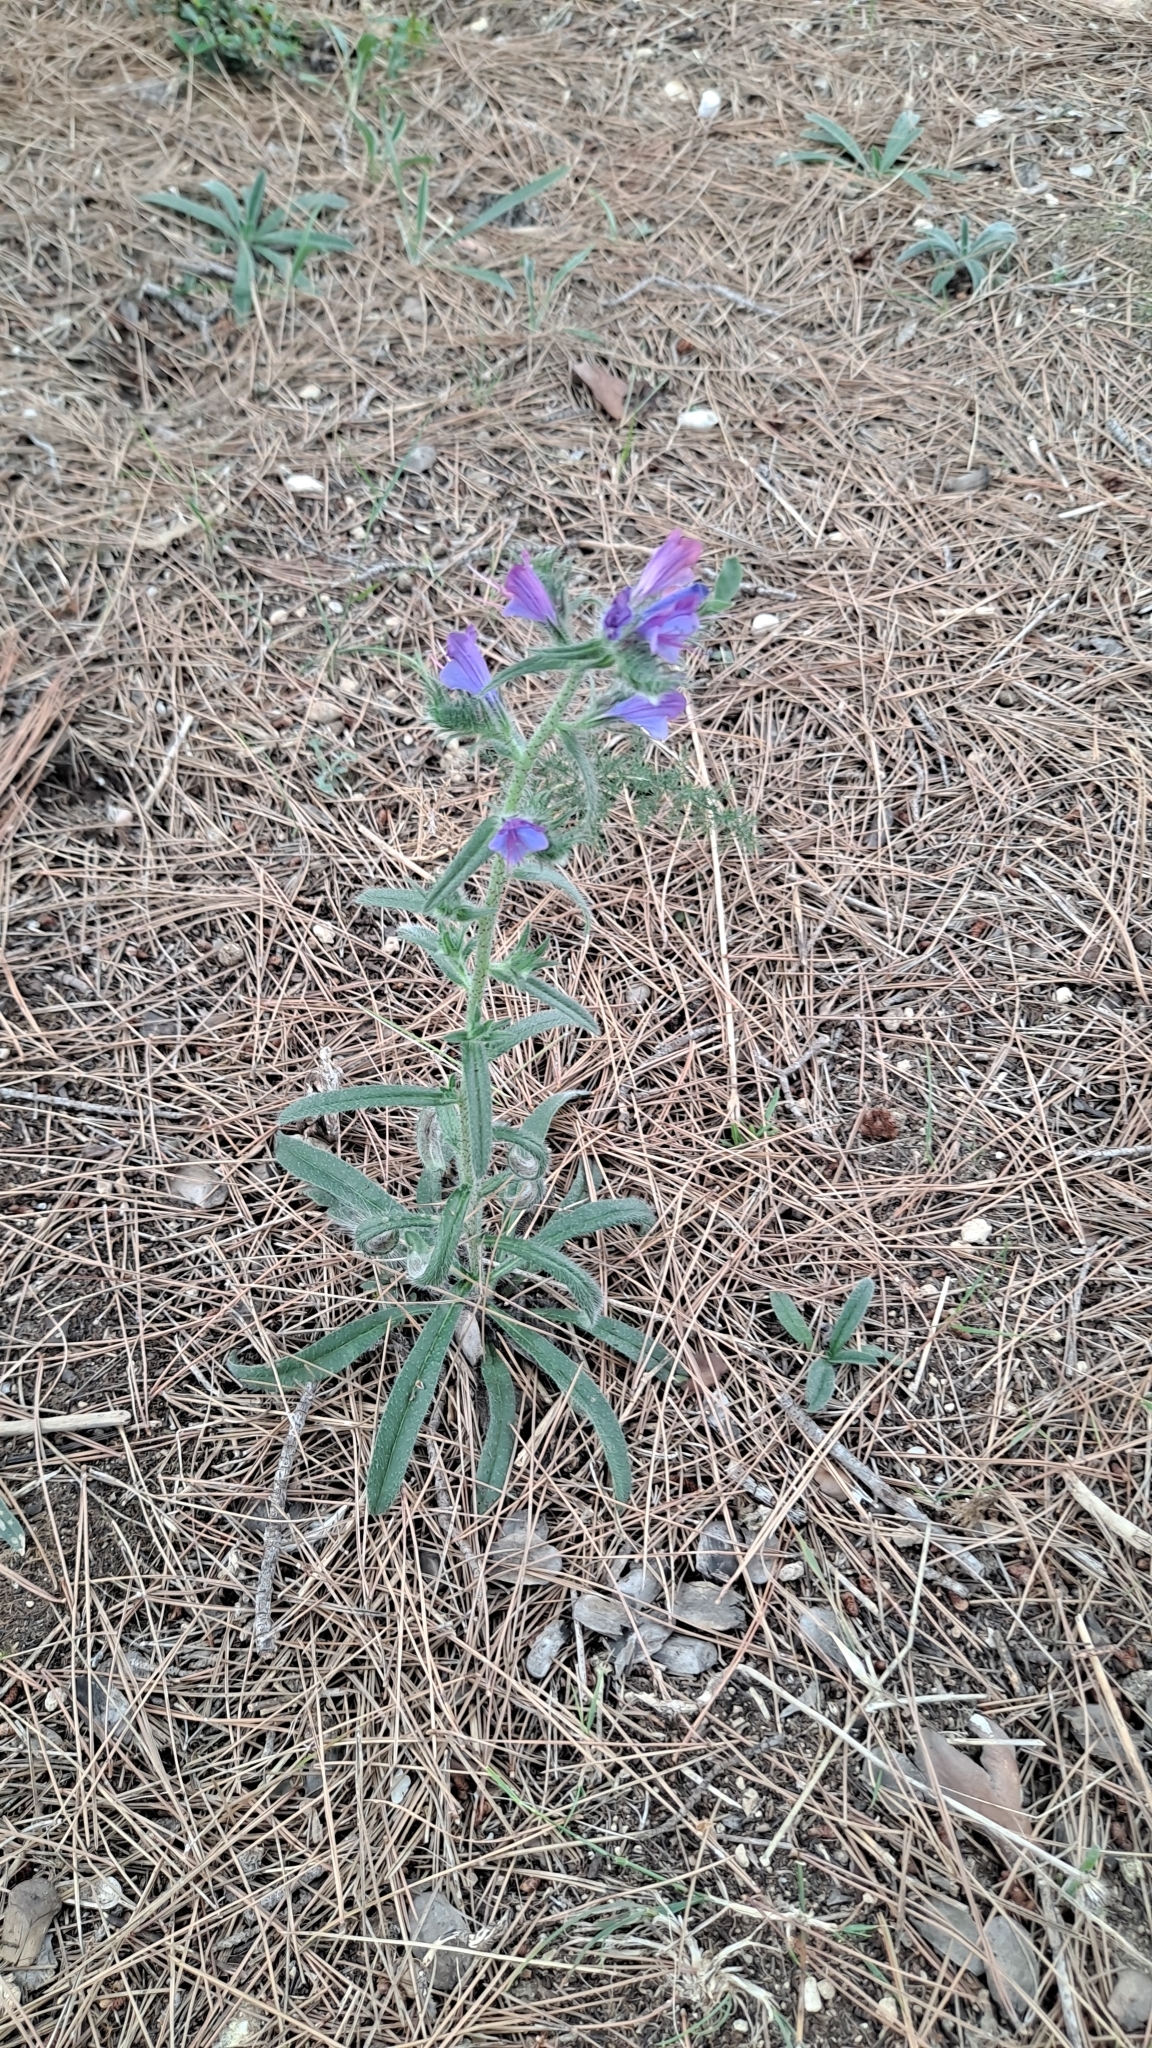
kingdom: Plantae
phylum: Tracheophyta
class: Magnoliopsida
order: Boraginales
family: Boraginaceae
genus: Echium
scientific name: Echium vulgare
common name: Common viper's bugloss
